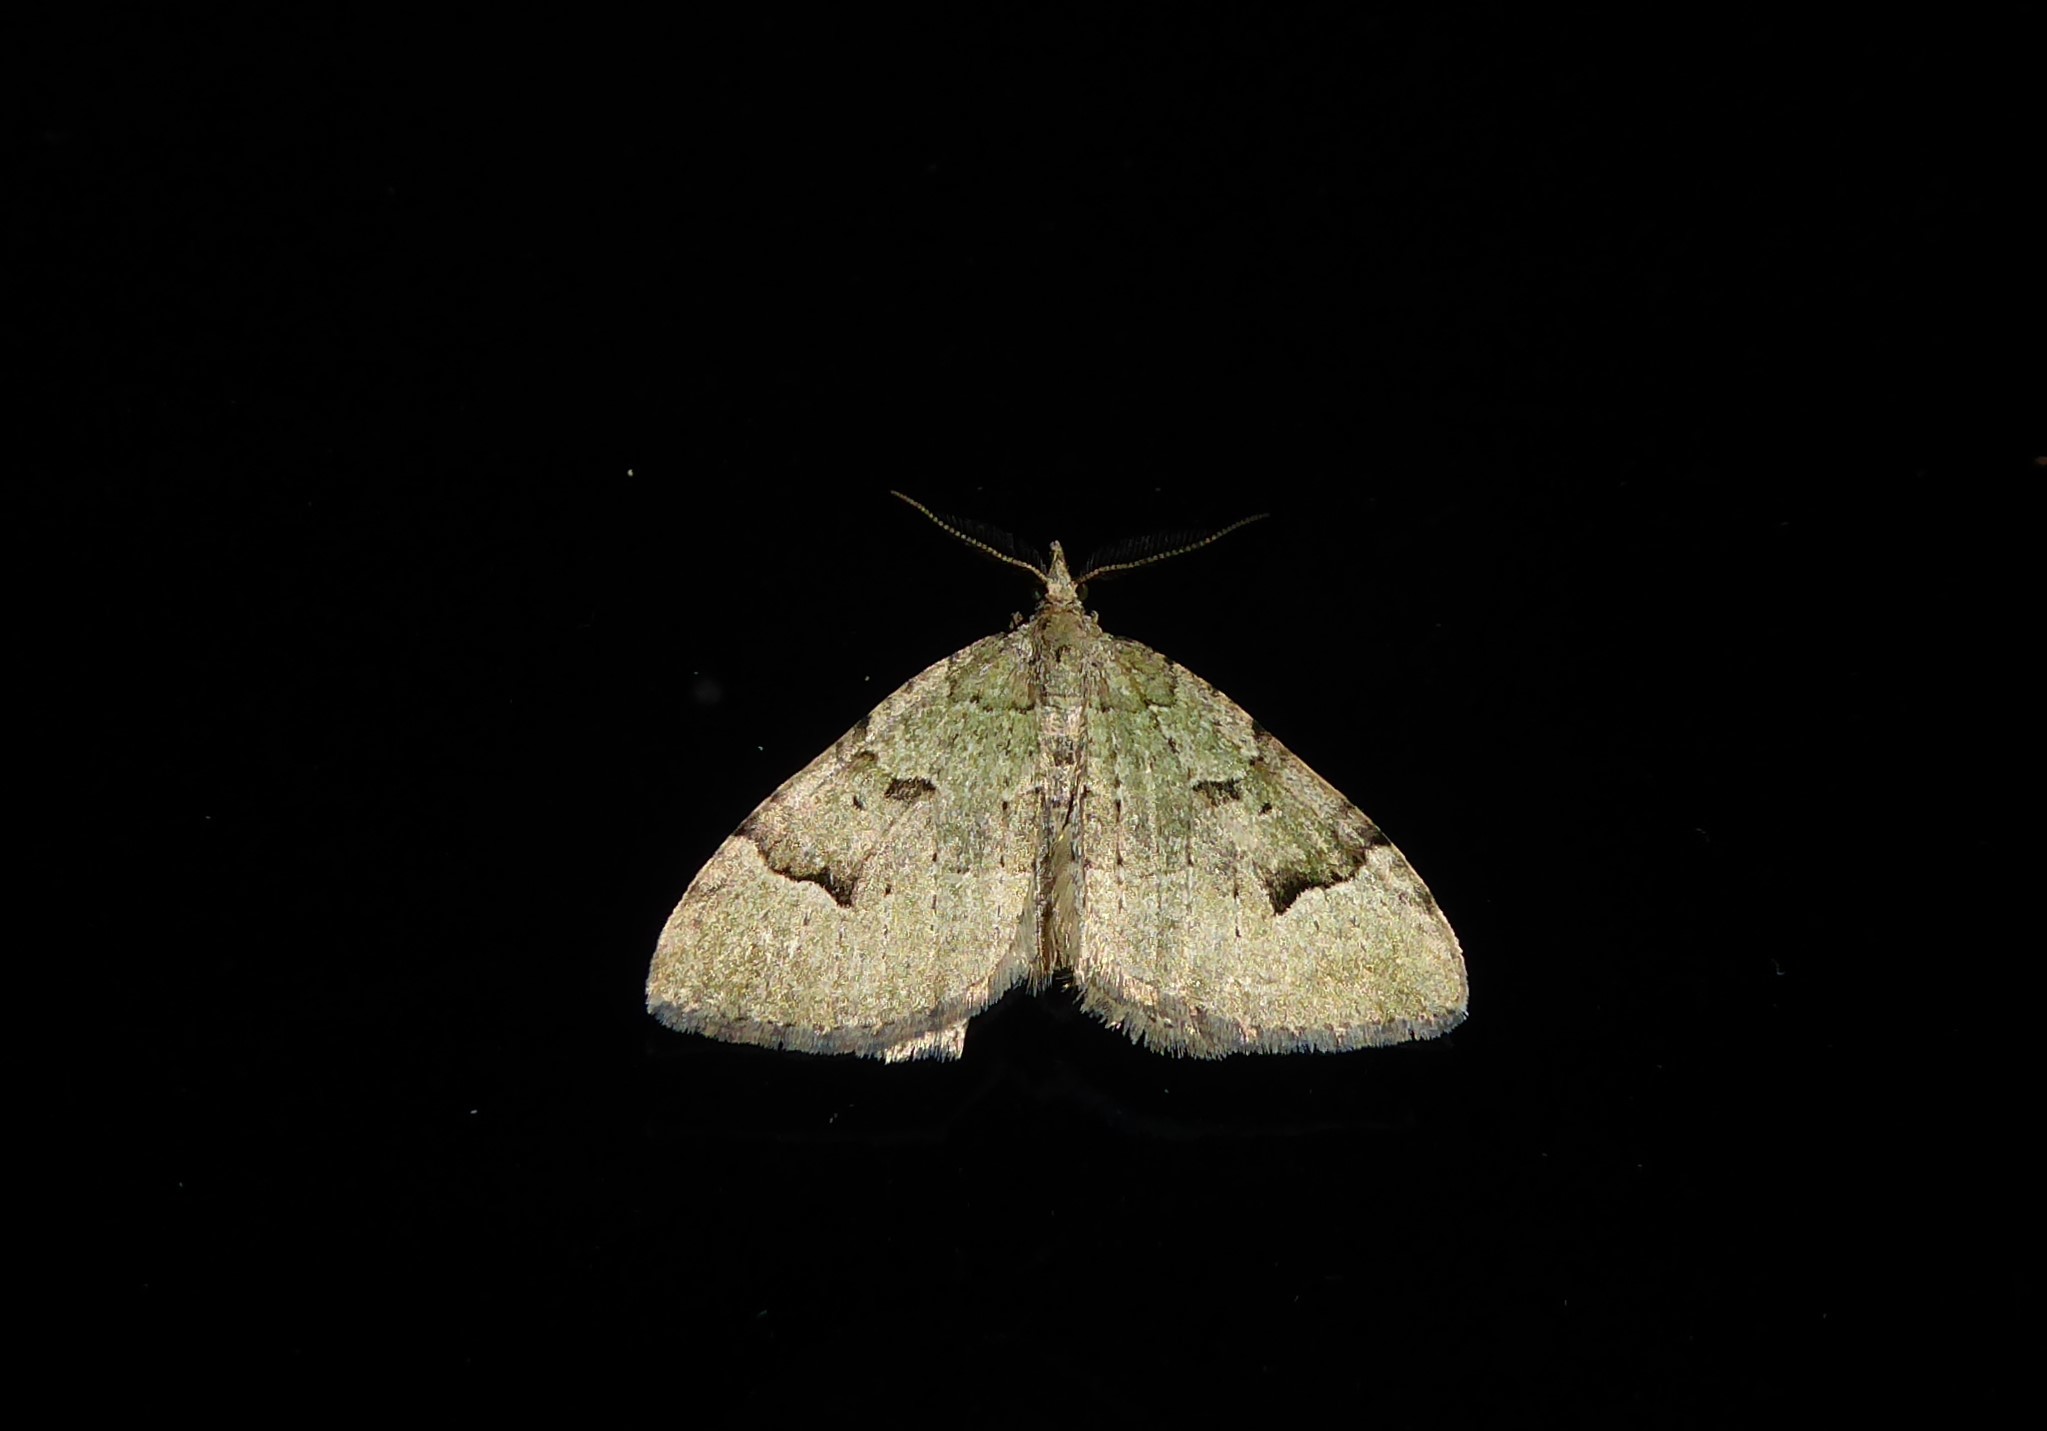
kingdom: Animalia
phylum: Arthropoda
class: Insecta
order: Lepidoptera
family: Geometridae
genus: Epyaxa
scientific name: Epyaxa rosearia
